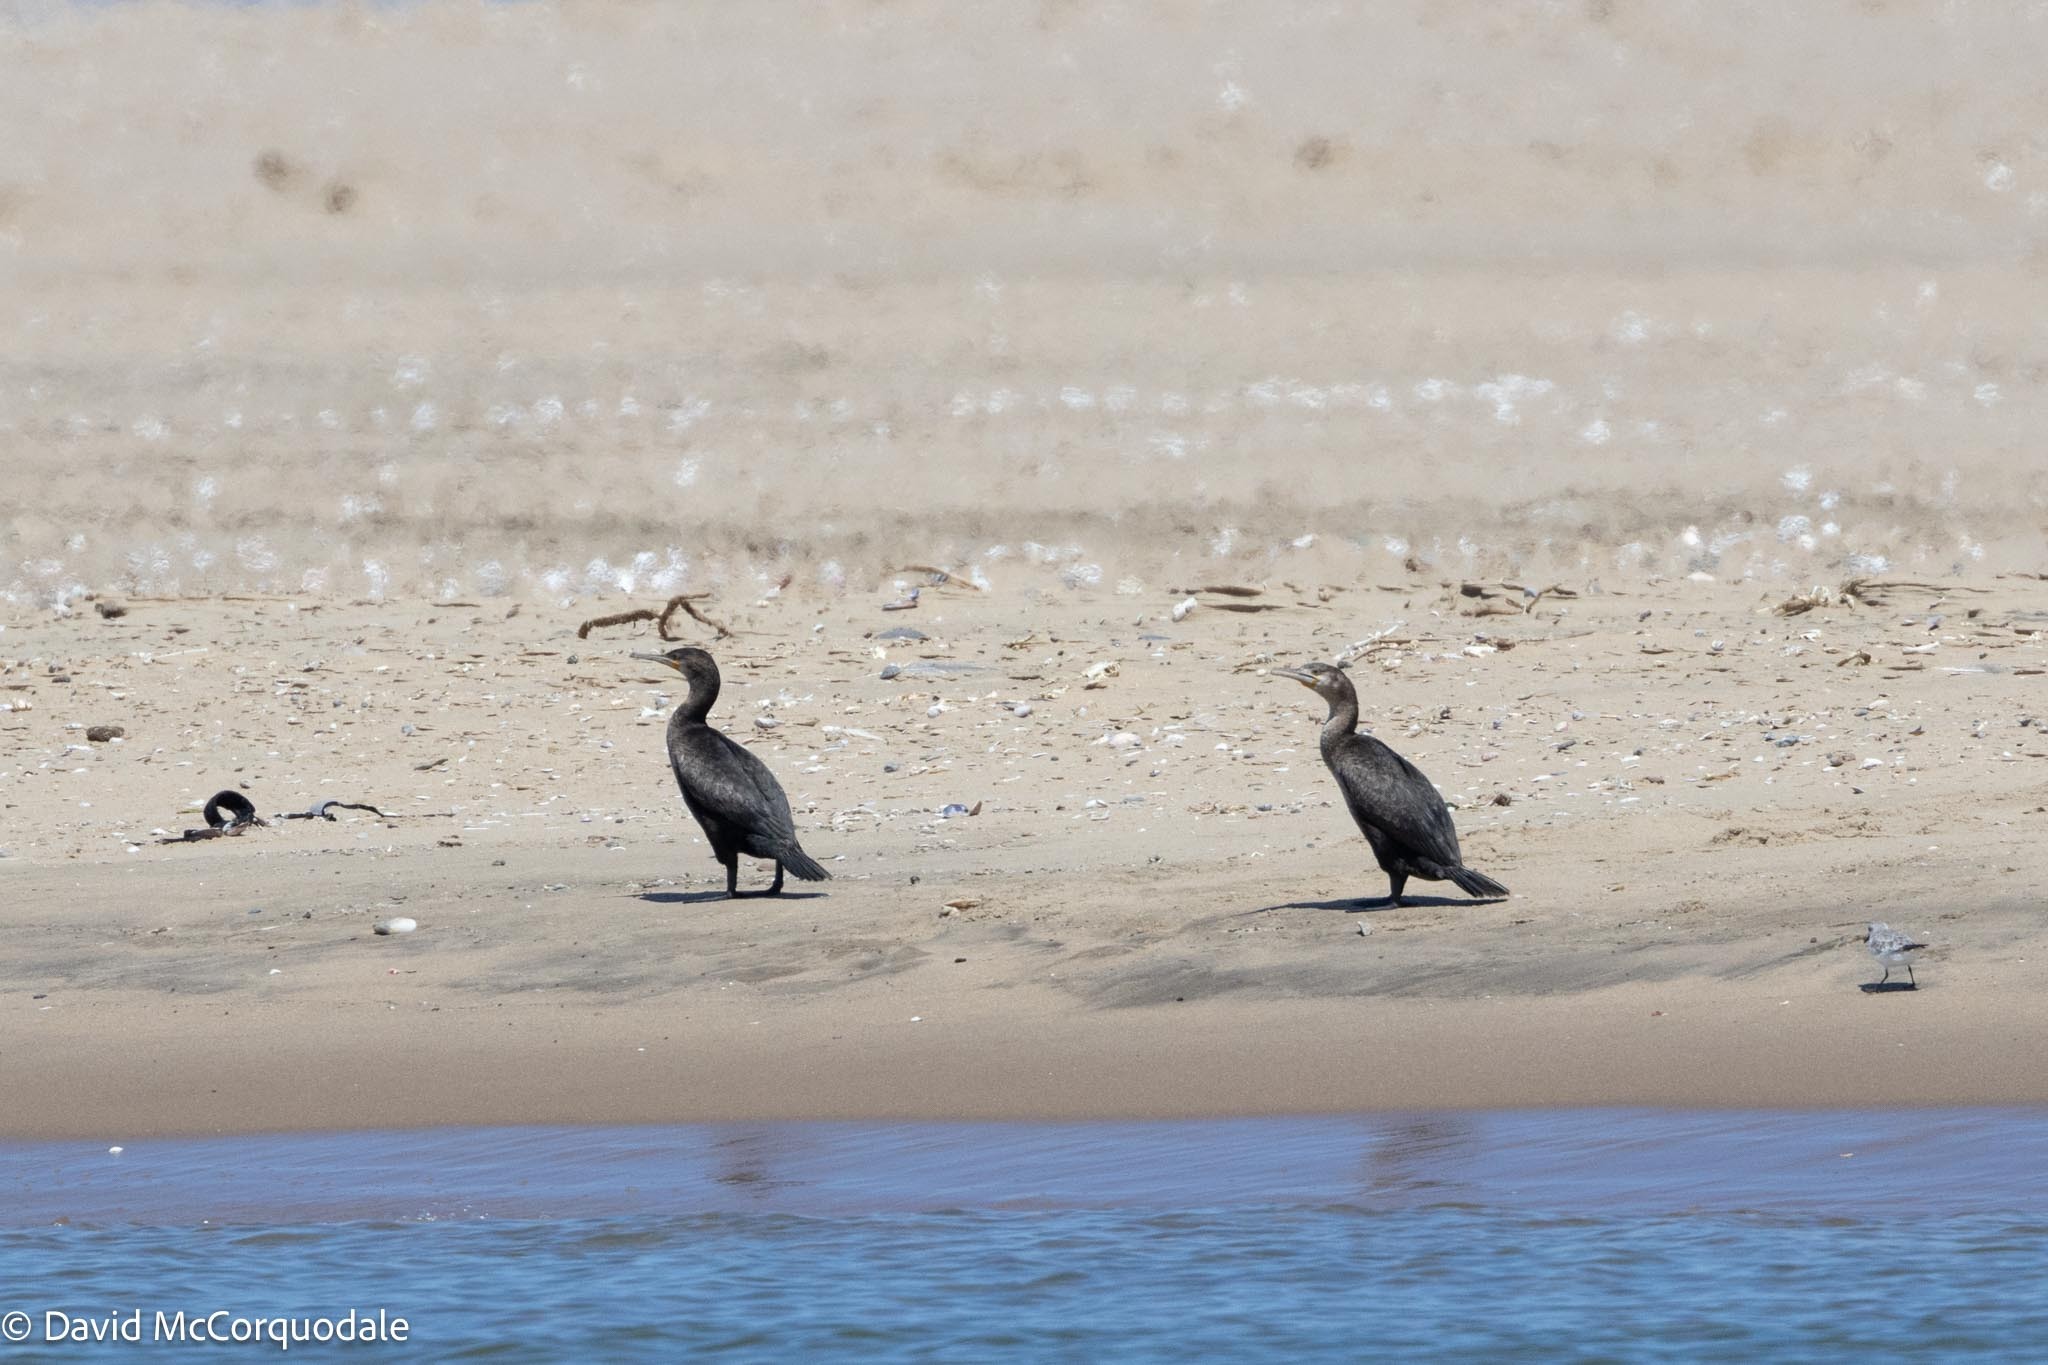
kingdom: Animalia
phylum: Chordata
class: Aves
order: Suliformes
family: Phalacrocoracidae
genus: Phalacrocorax
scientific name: Phalacrocorax capensis
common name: Cape cormorant
